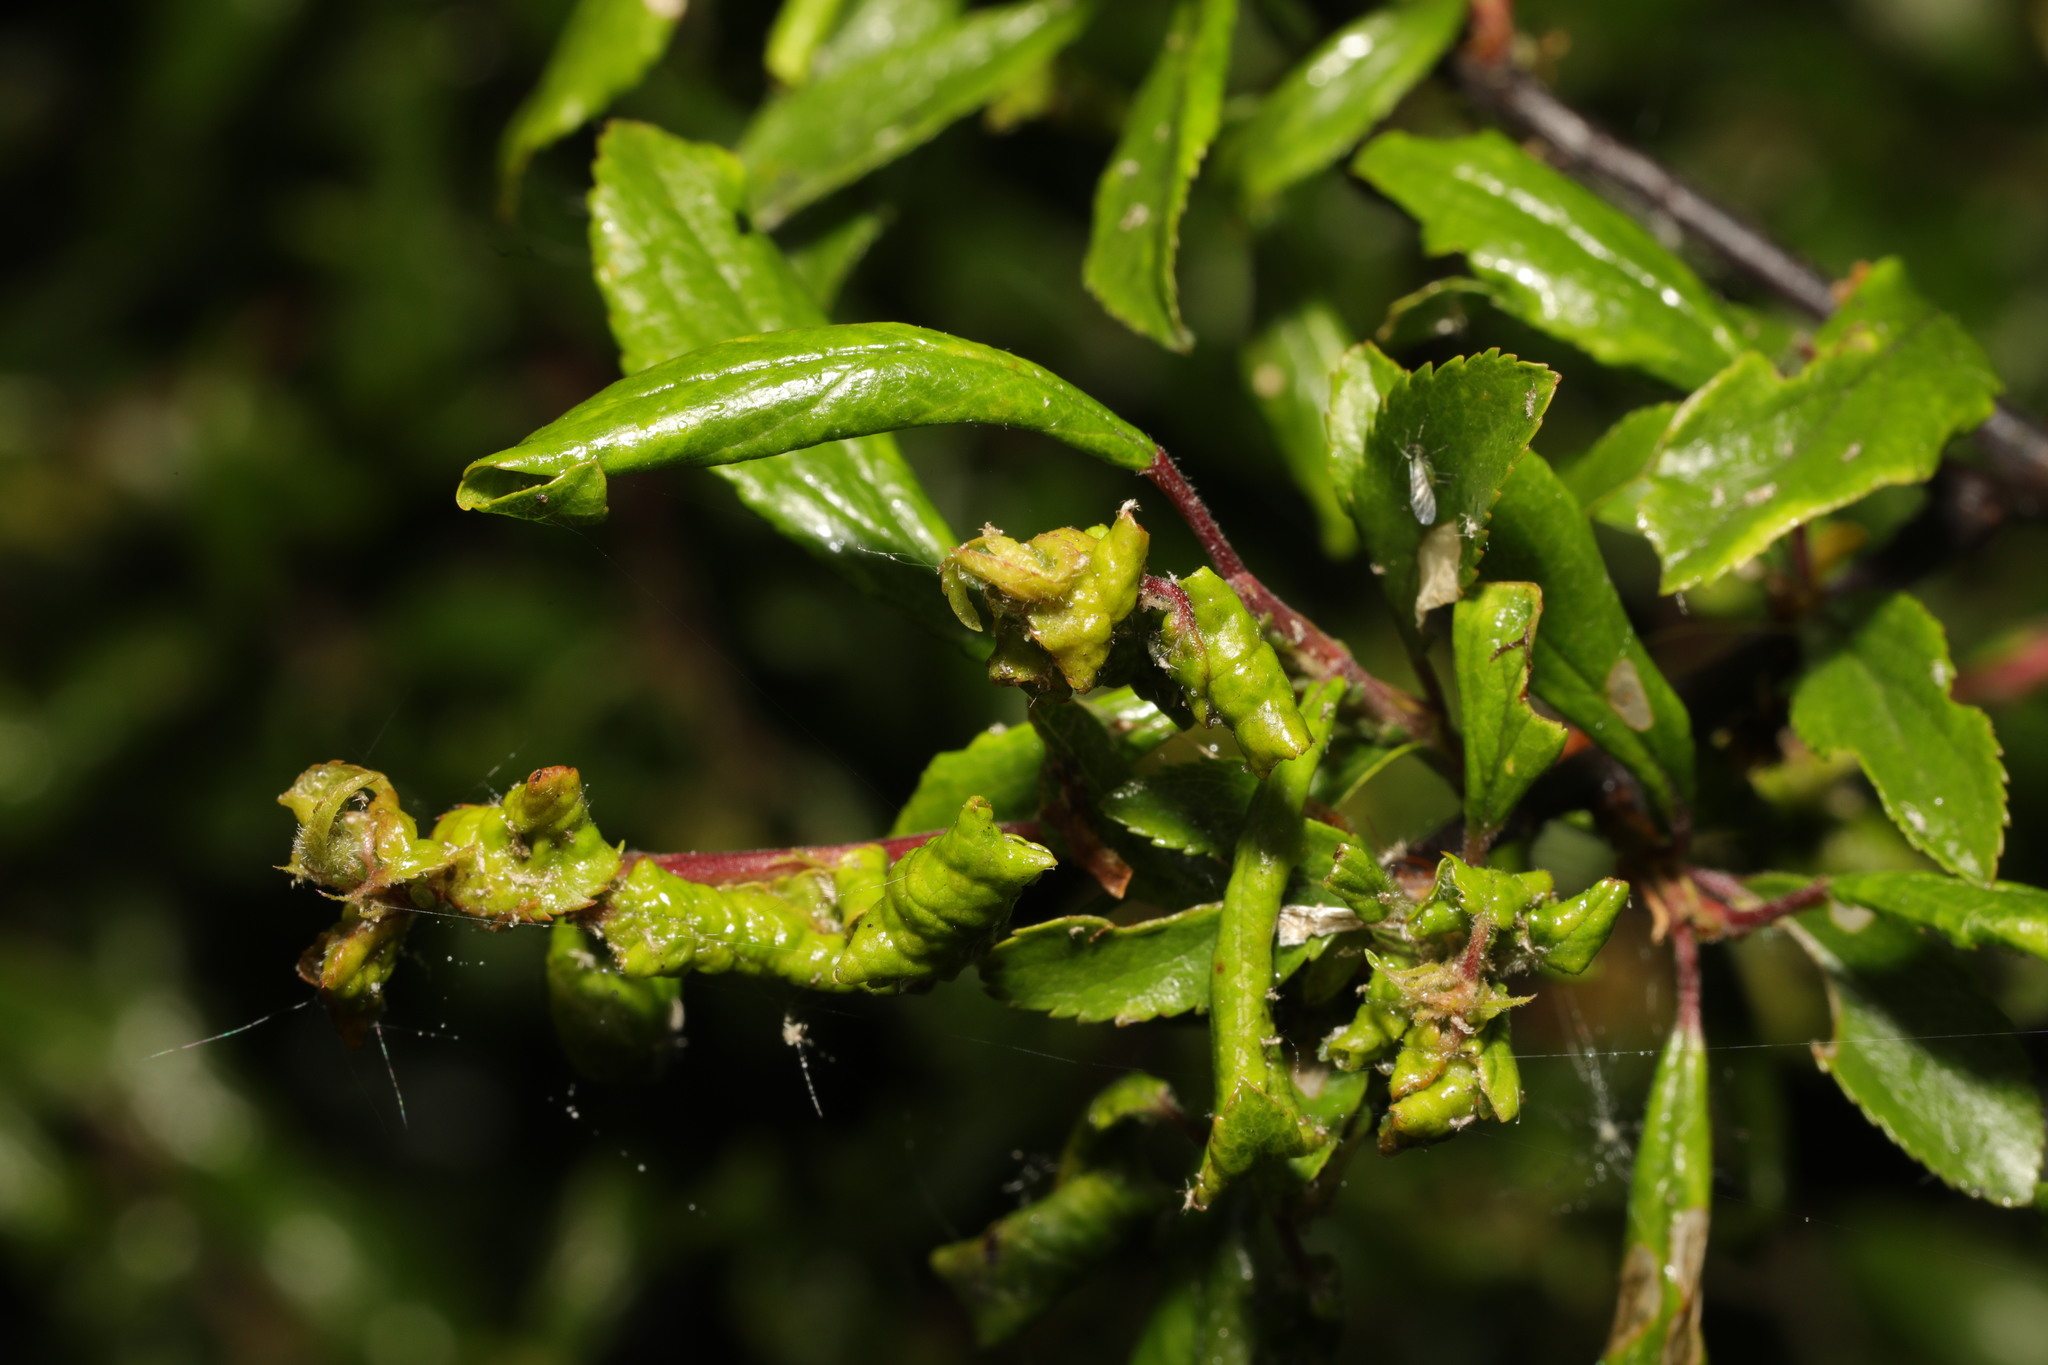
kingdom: Animalia
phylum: Arthropoda
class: Insecta
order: Hemiptera
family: Aphididae
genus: Hyalopterus
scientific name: Hyalopterus pruni
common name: Mealy plum aphid
